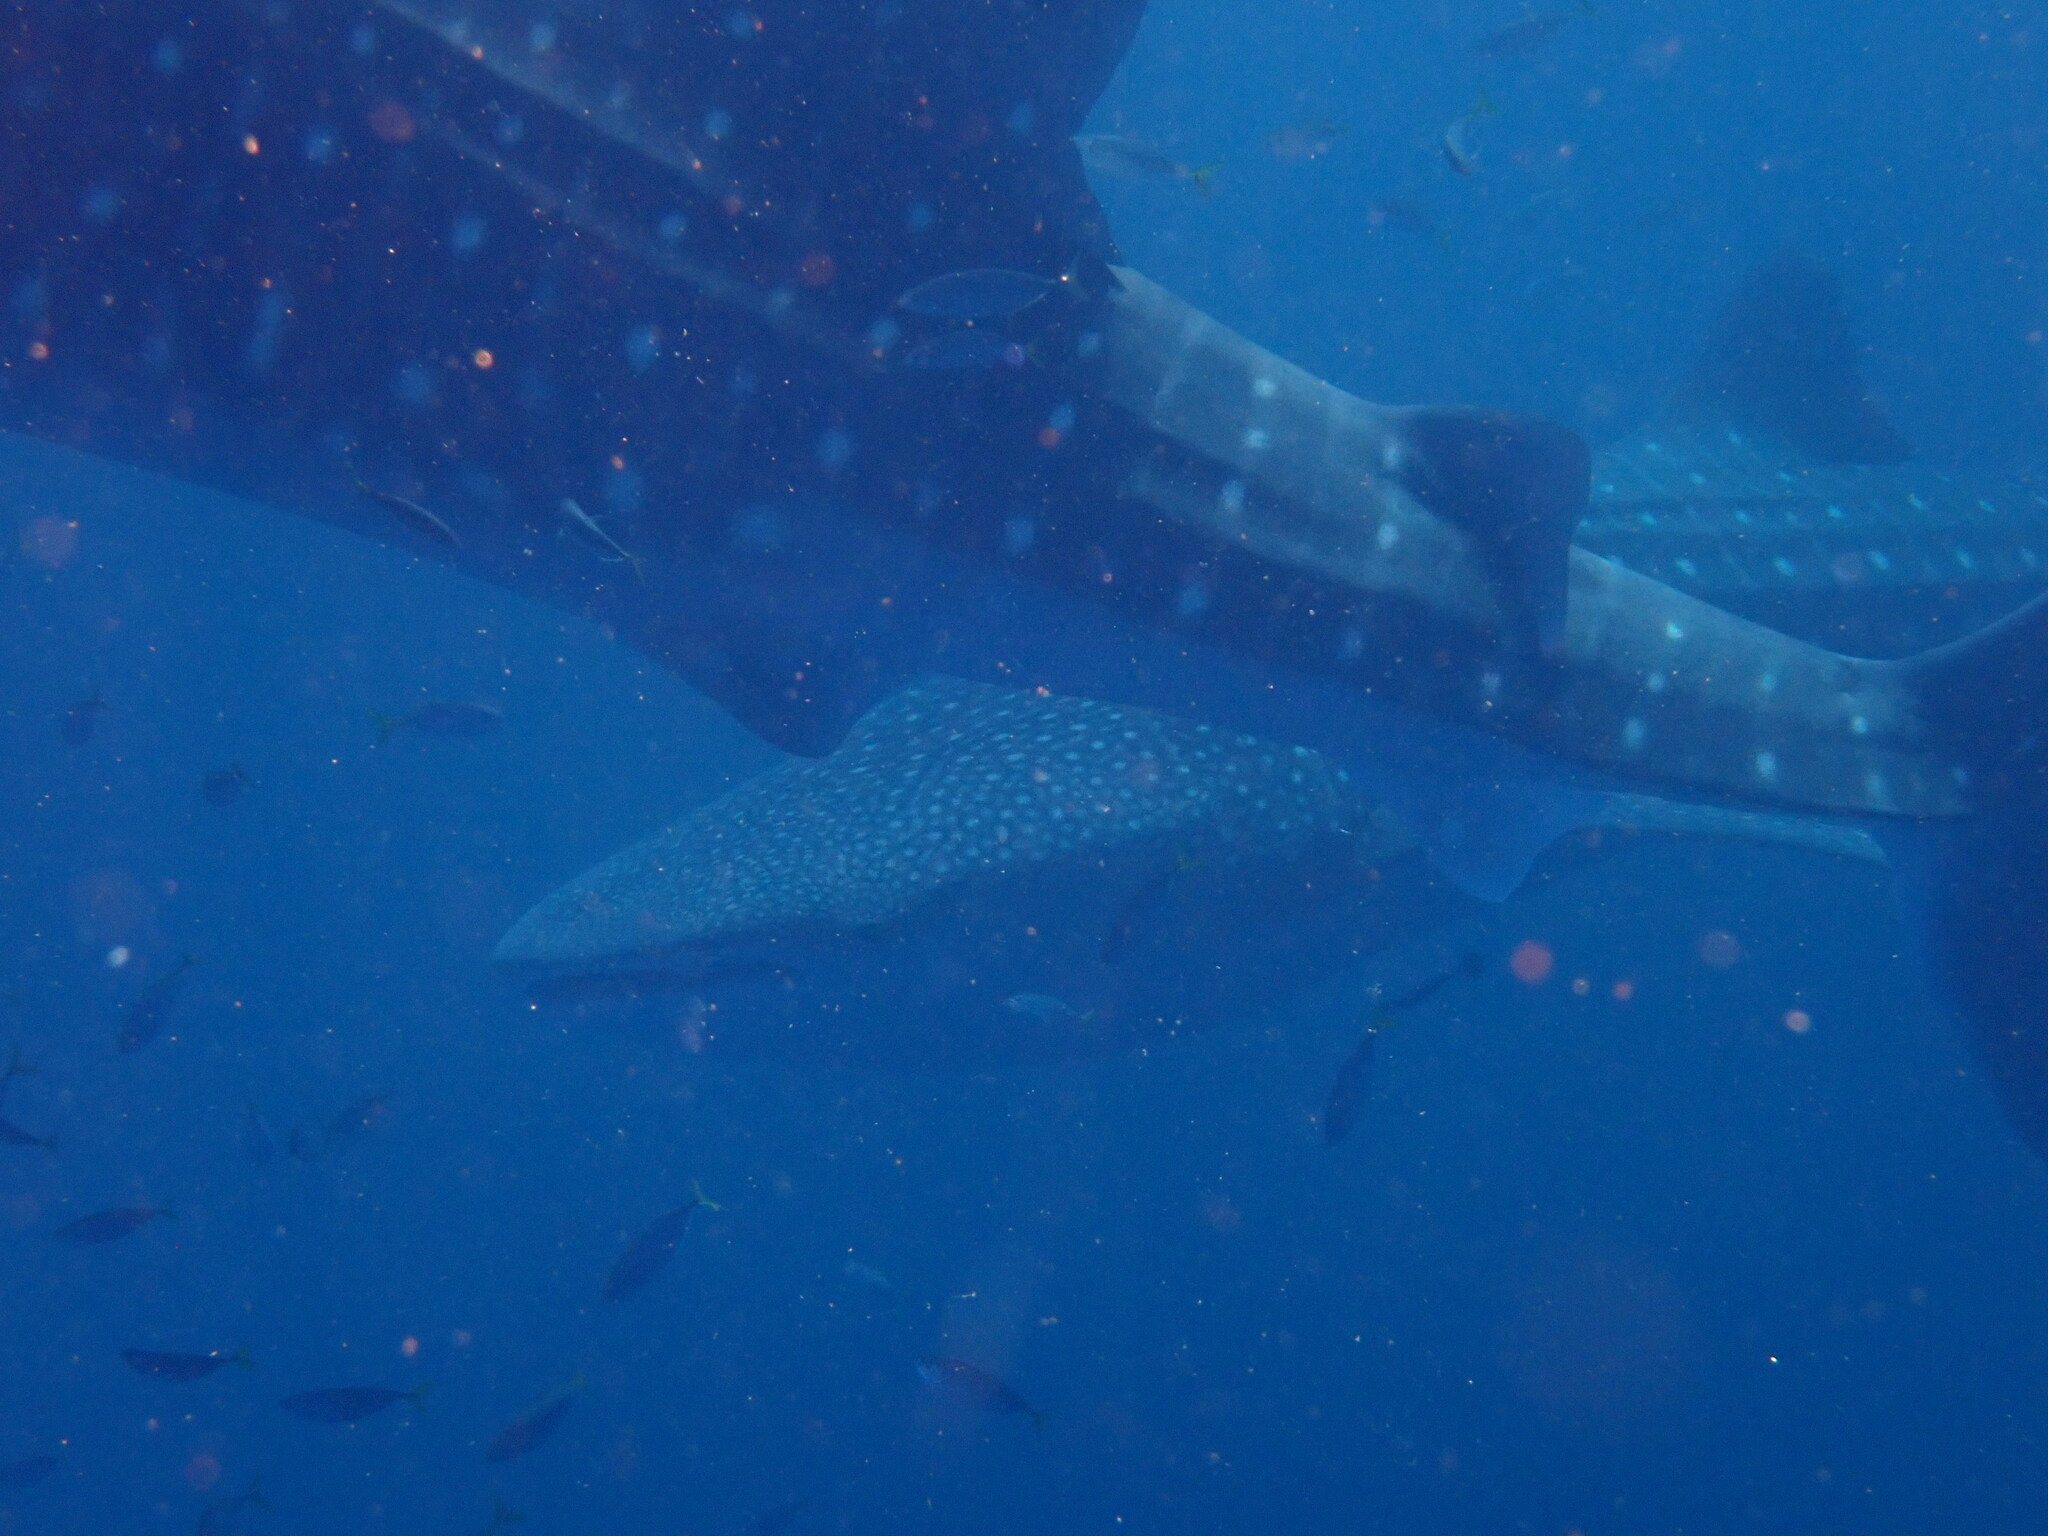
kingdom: Animalia
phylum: Chordata
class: Elasmobranchii
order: Orectolobiformes
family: Rhincodontidae
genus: Rhincodon
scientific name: Rhincodon typus
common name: Whale shark
